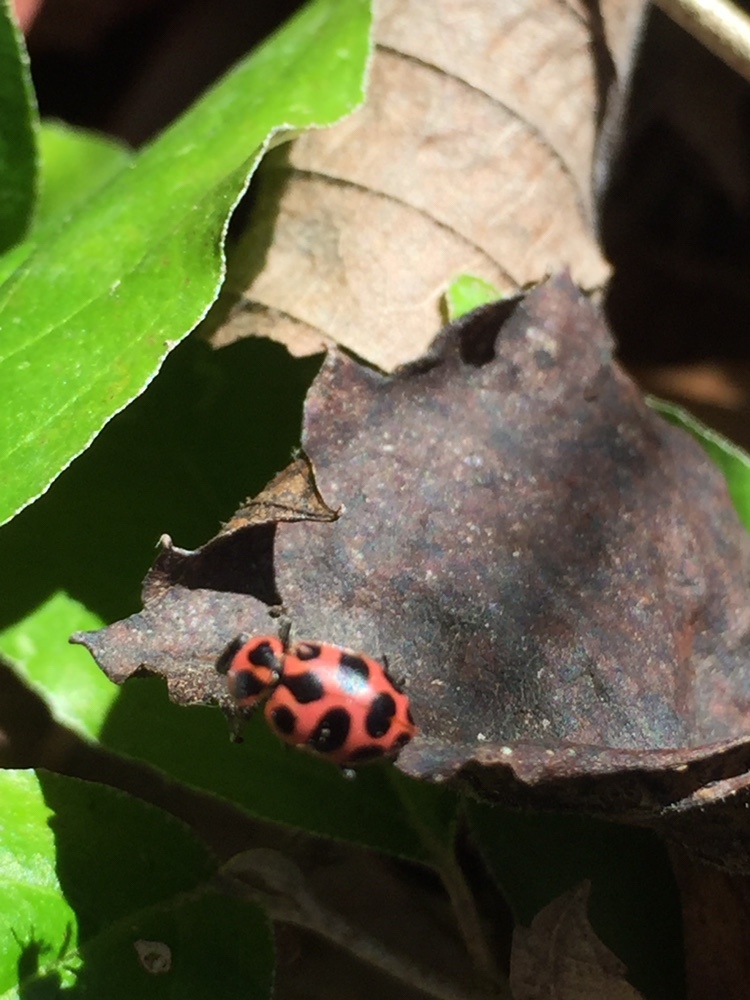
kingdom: Animalia
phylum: Arthropoda
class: Insecta
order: Coleoptera
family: Coccinellidae
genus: Coleomegilla
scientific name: Coleomegilla maculata
